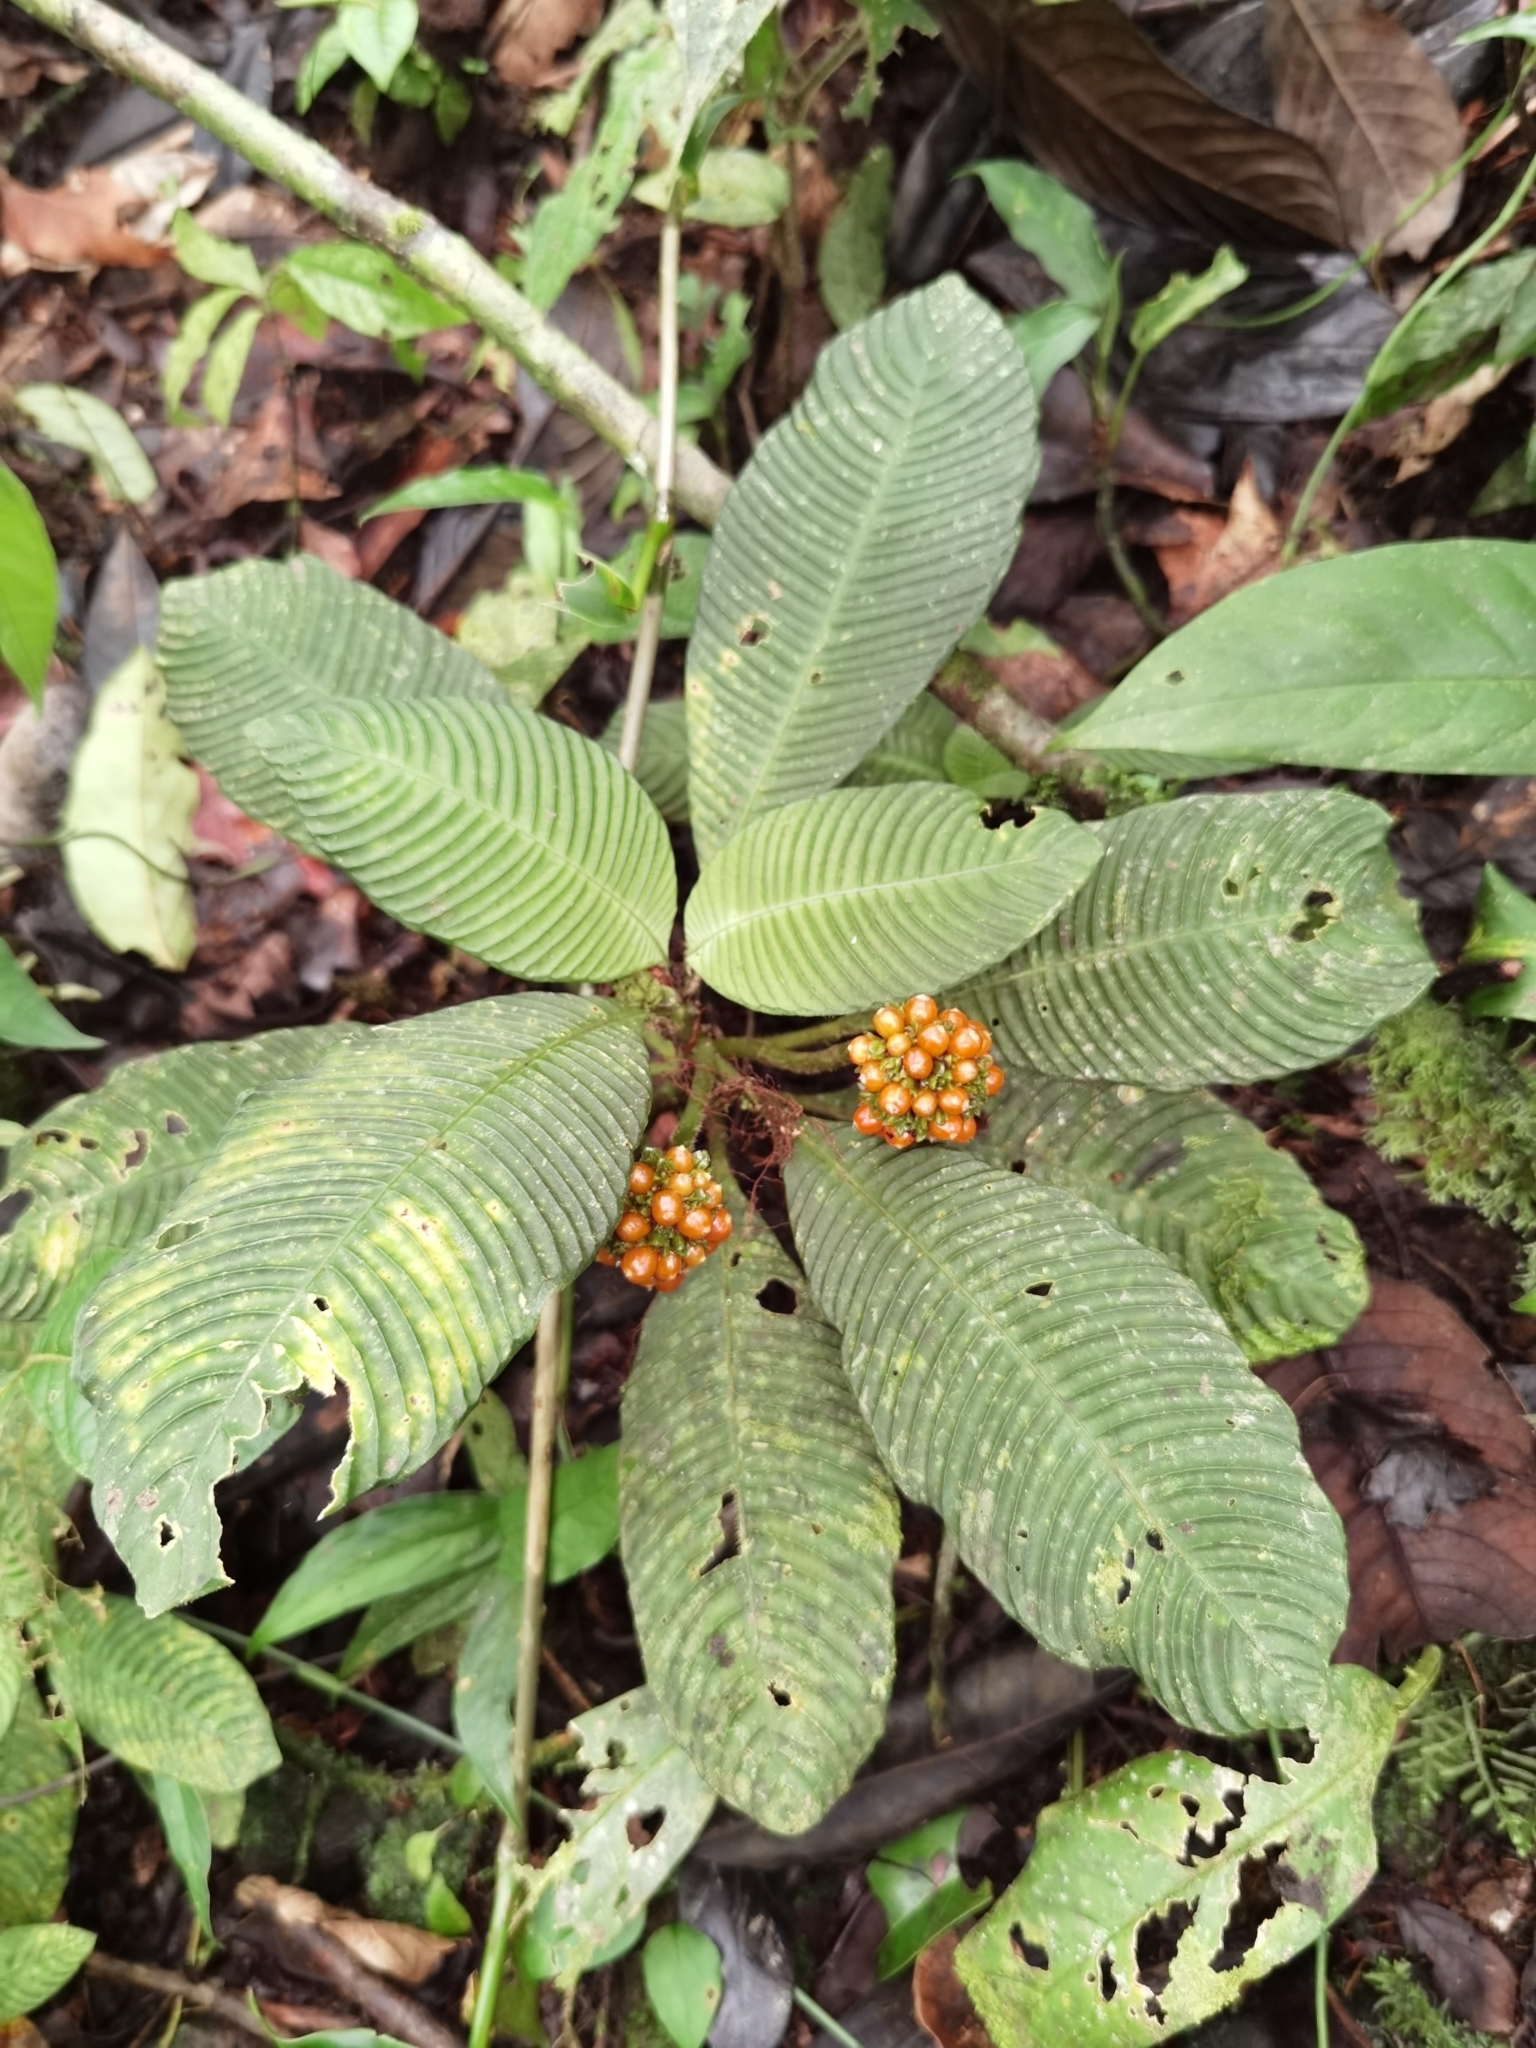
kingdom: Plantae
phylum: Tracheophyta
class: Magnoliopsida
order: Gentianales
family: Rubiaceae
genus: Notopleura
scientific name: Notopleura polyphlebia
